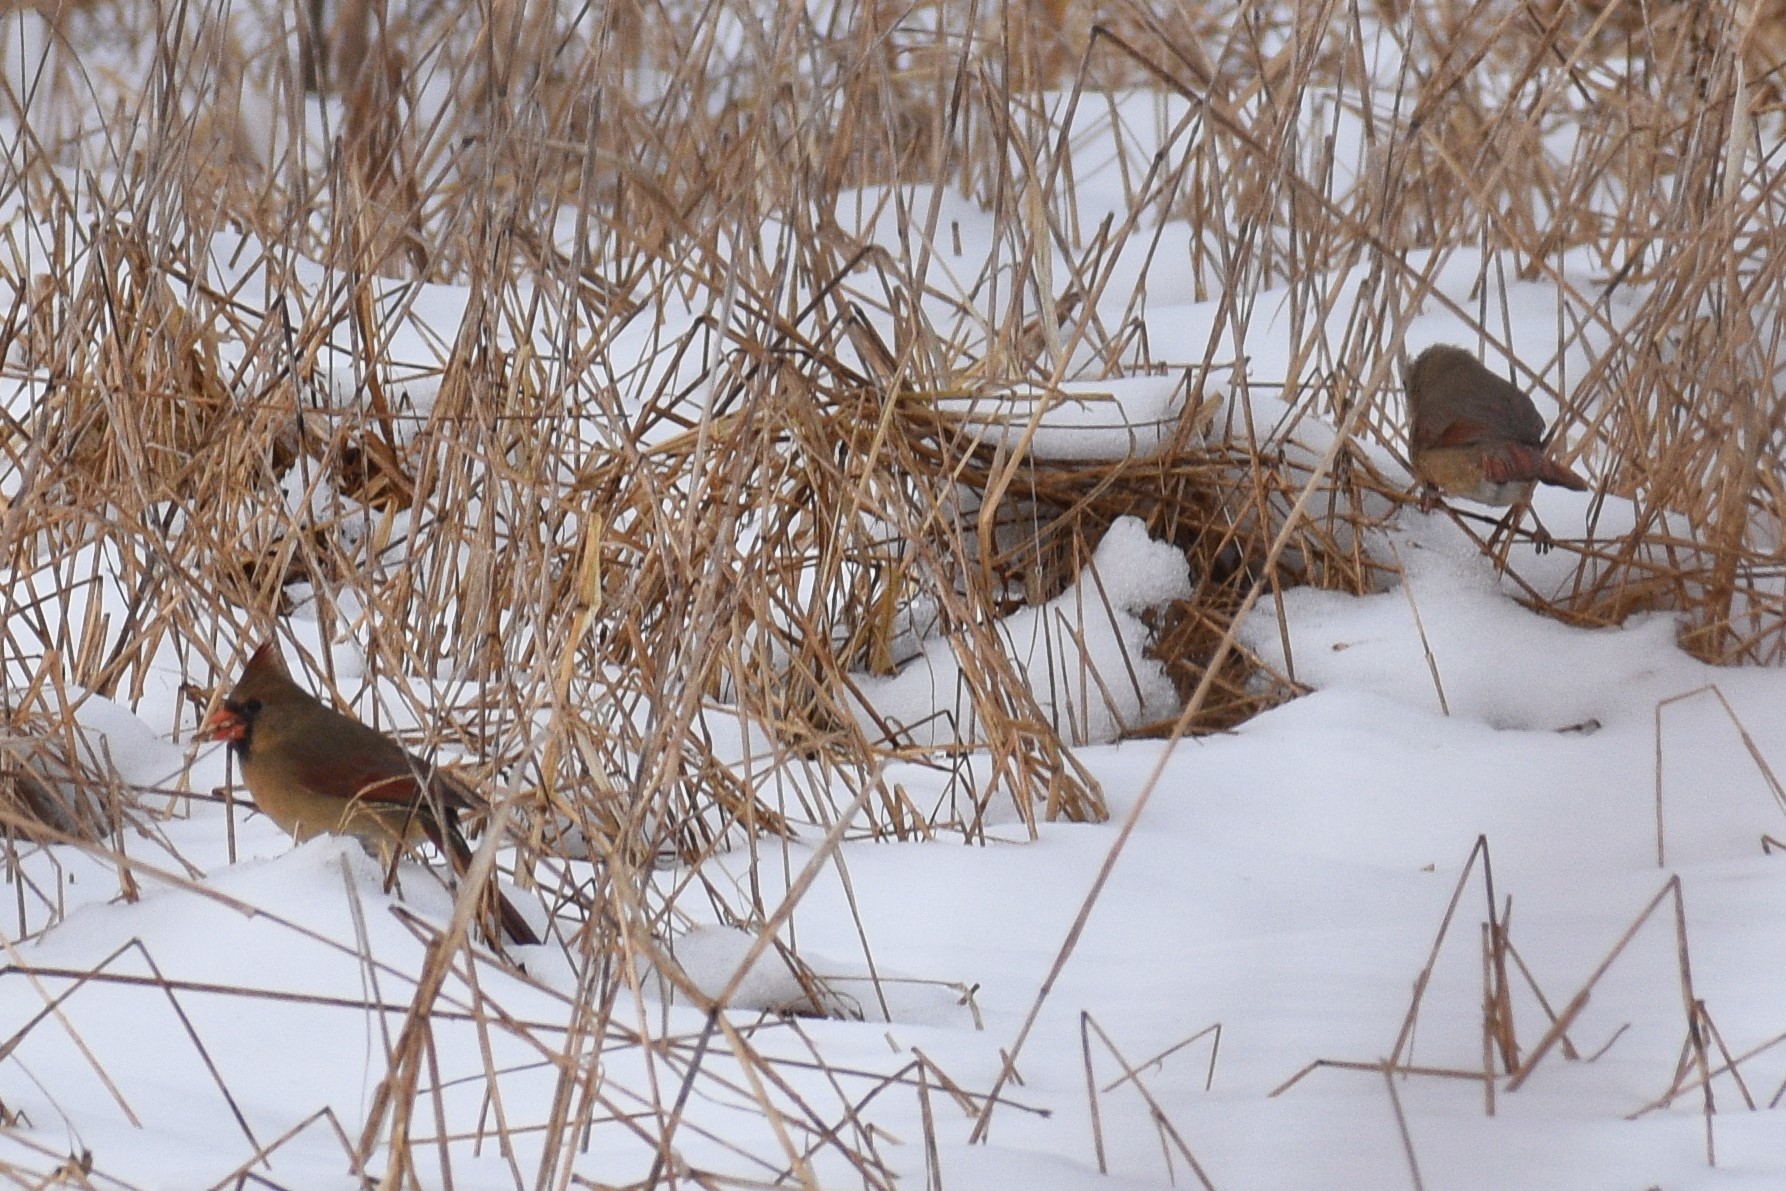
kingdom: Animalia
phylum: Chordata
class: Aves
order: Passeriformes
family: Cardinalidae
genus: Cardinalis
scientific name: Cardinalis cardinalis
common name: Northern cardinal
